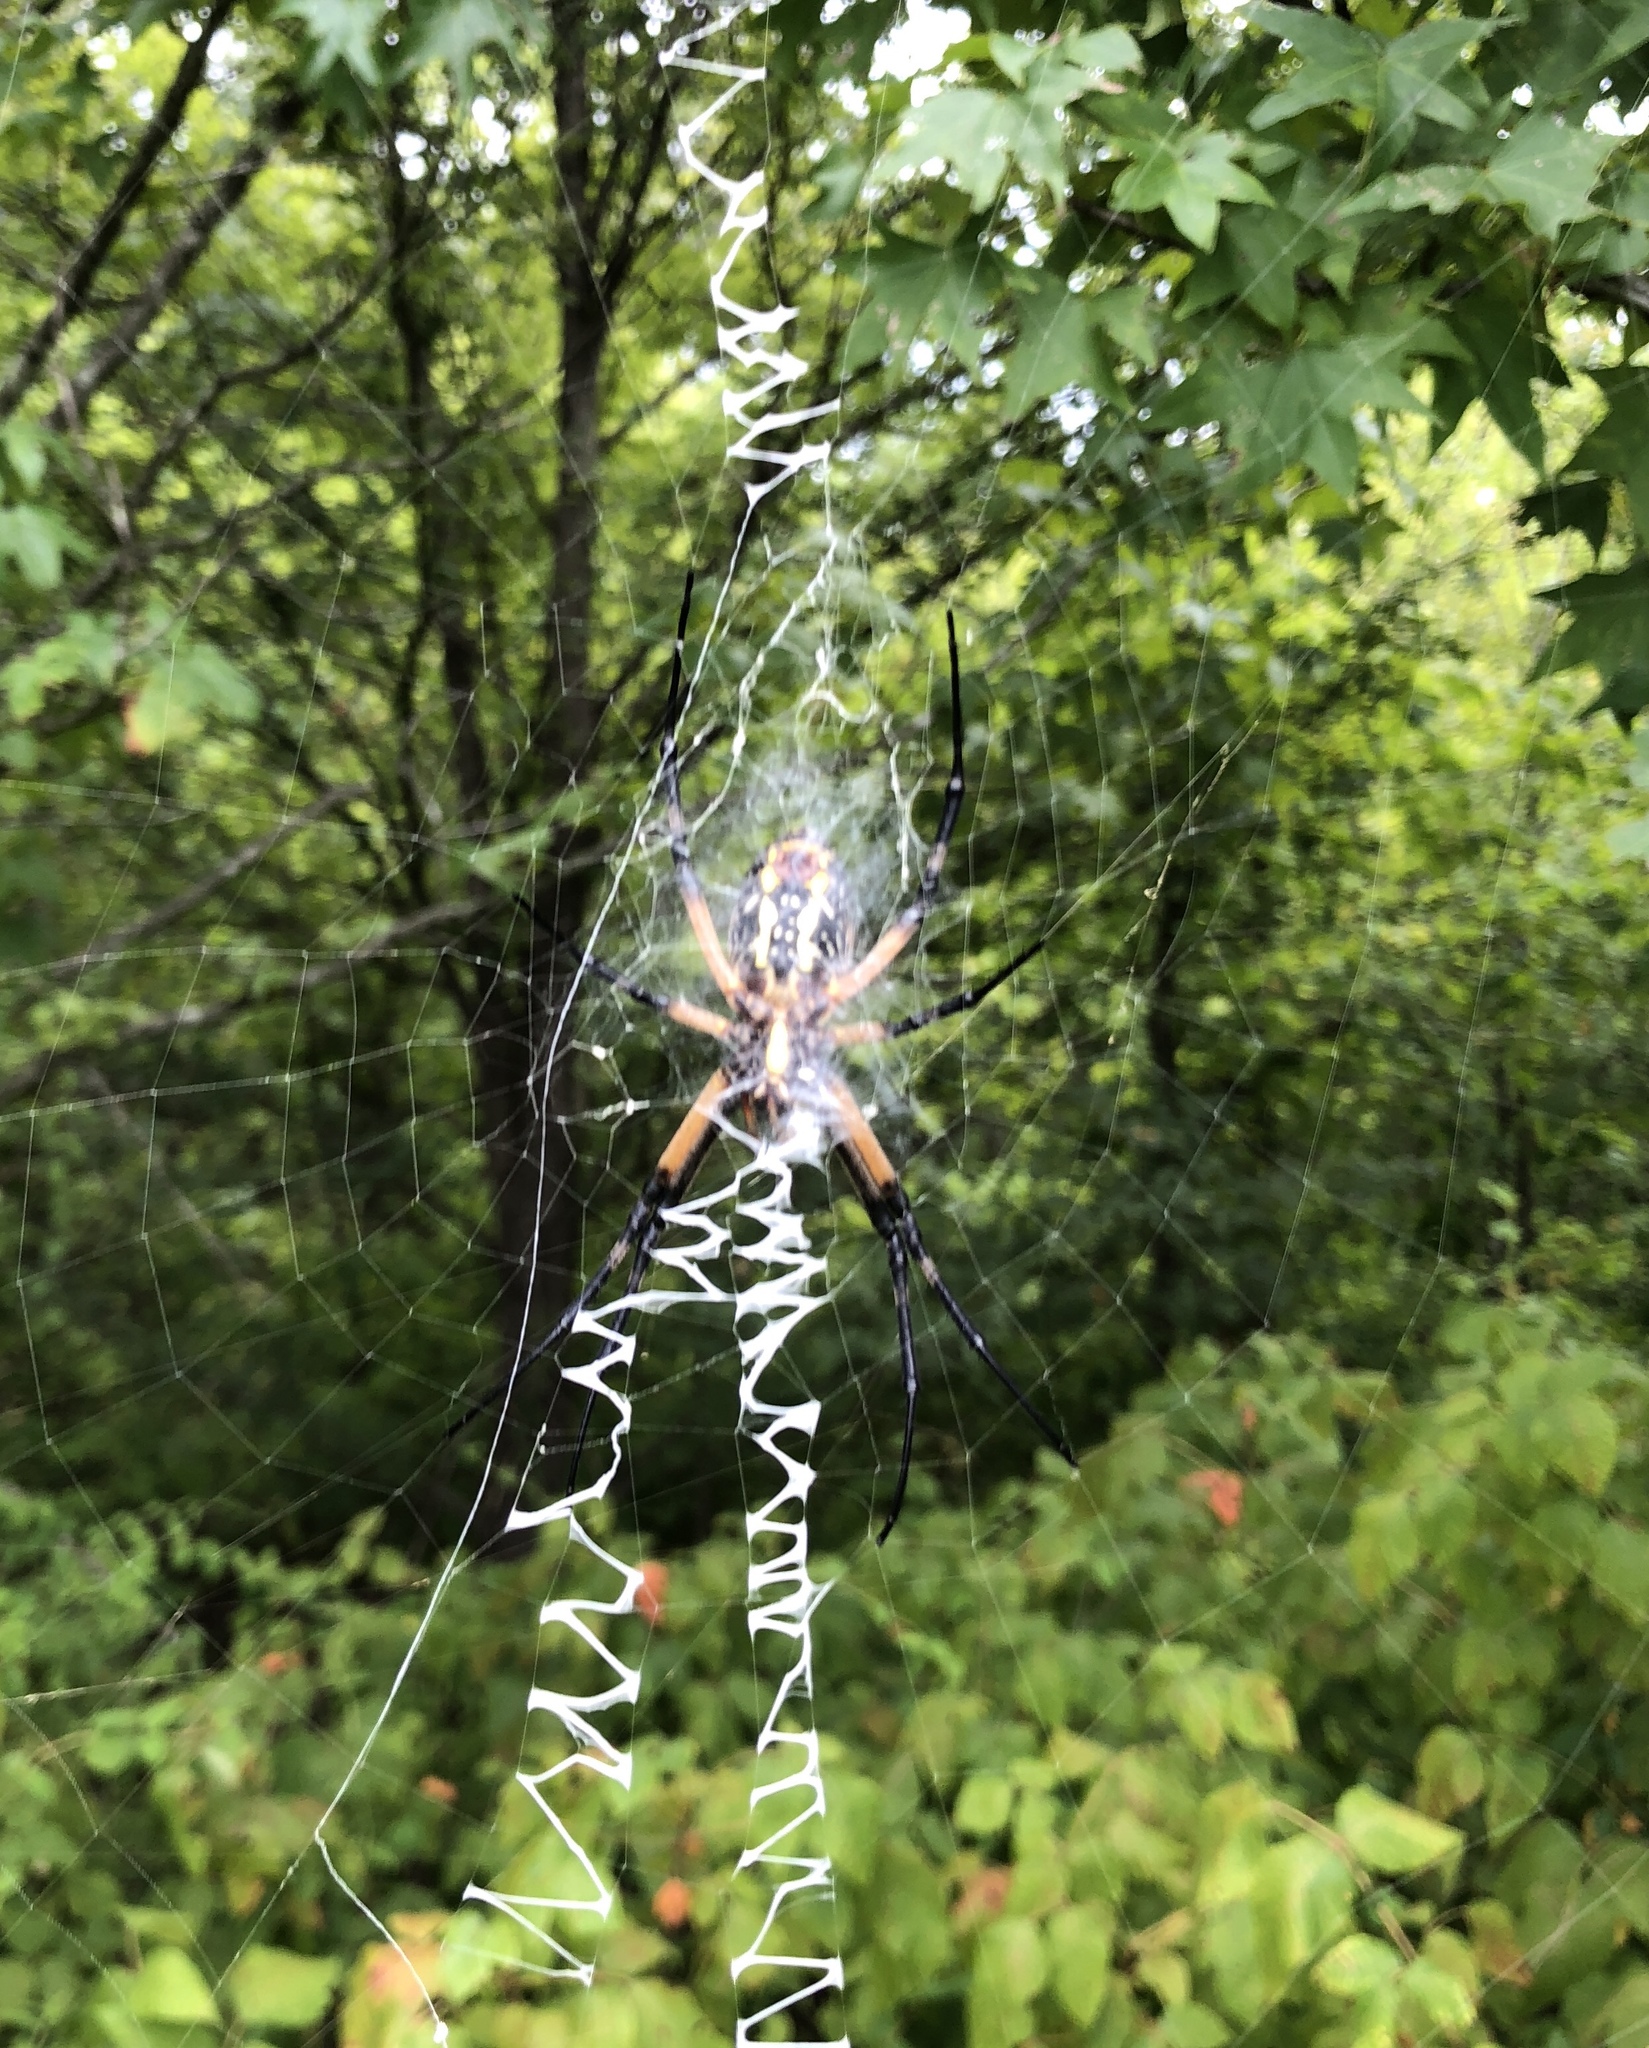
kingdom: Animalia
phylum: Arthropoda
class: Arachnida
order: Araneae
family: Araneidae
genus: Argiope
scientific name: Argiope aurantia
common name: Orb weavers
